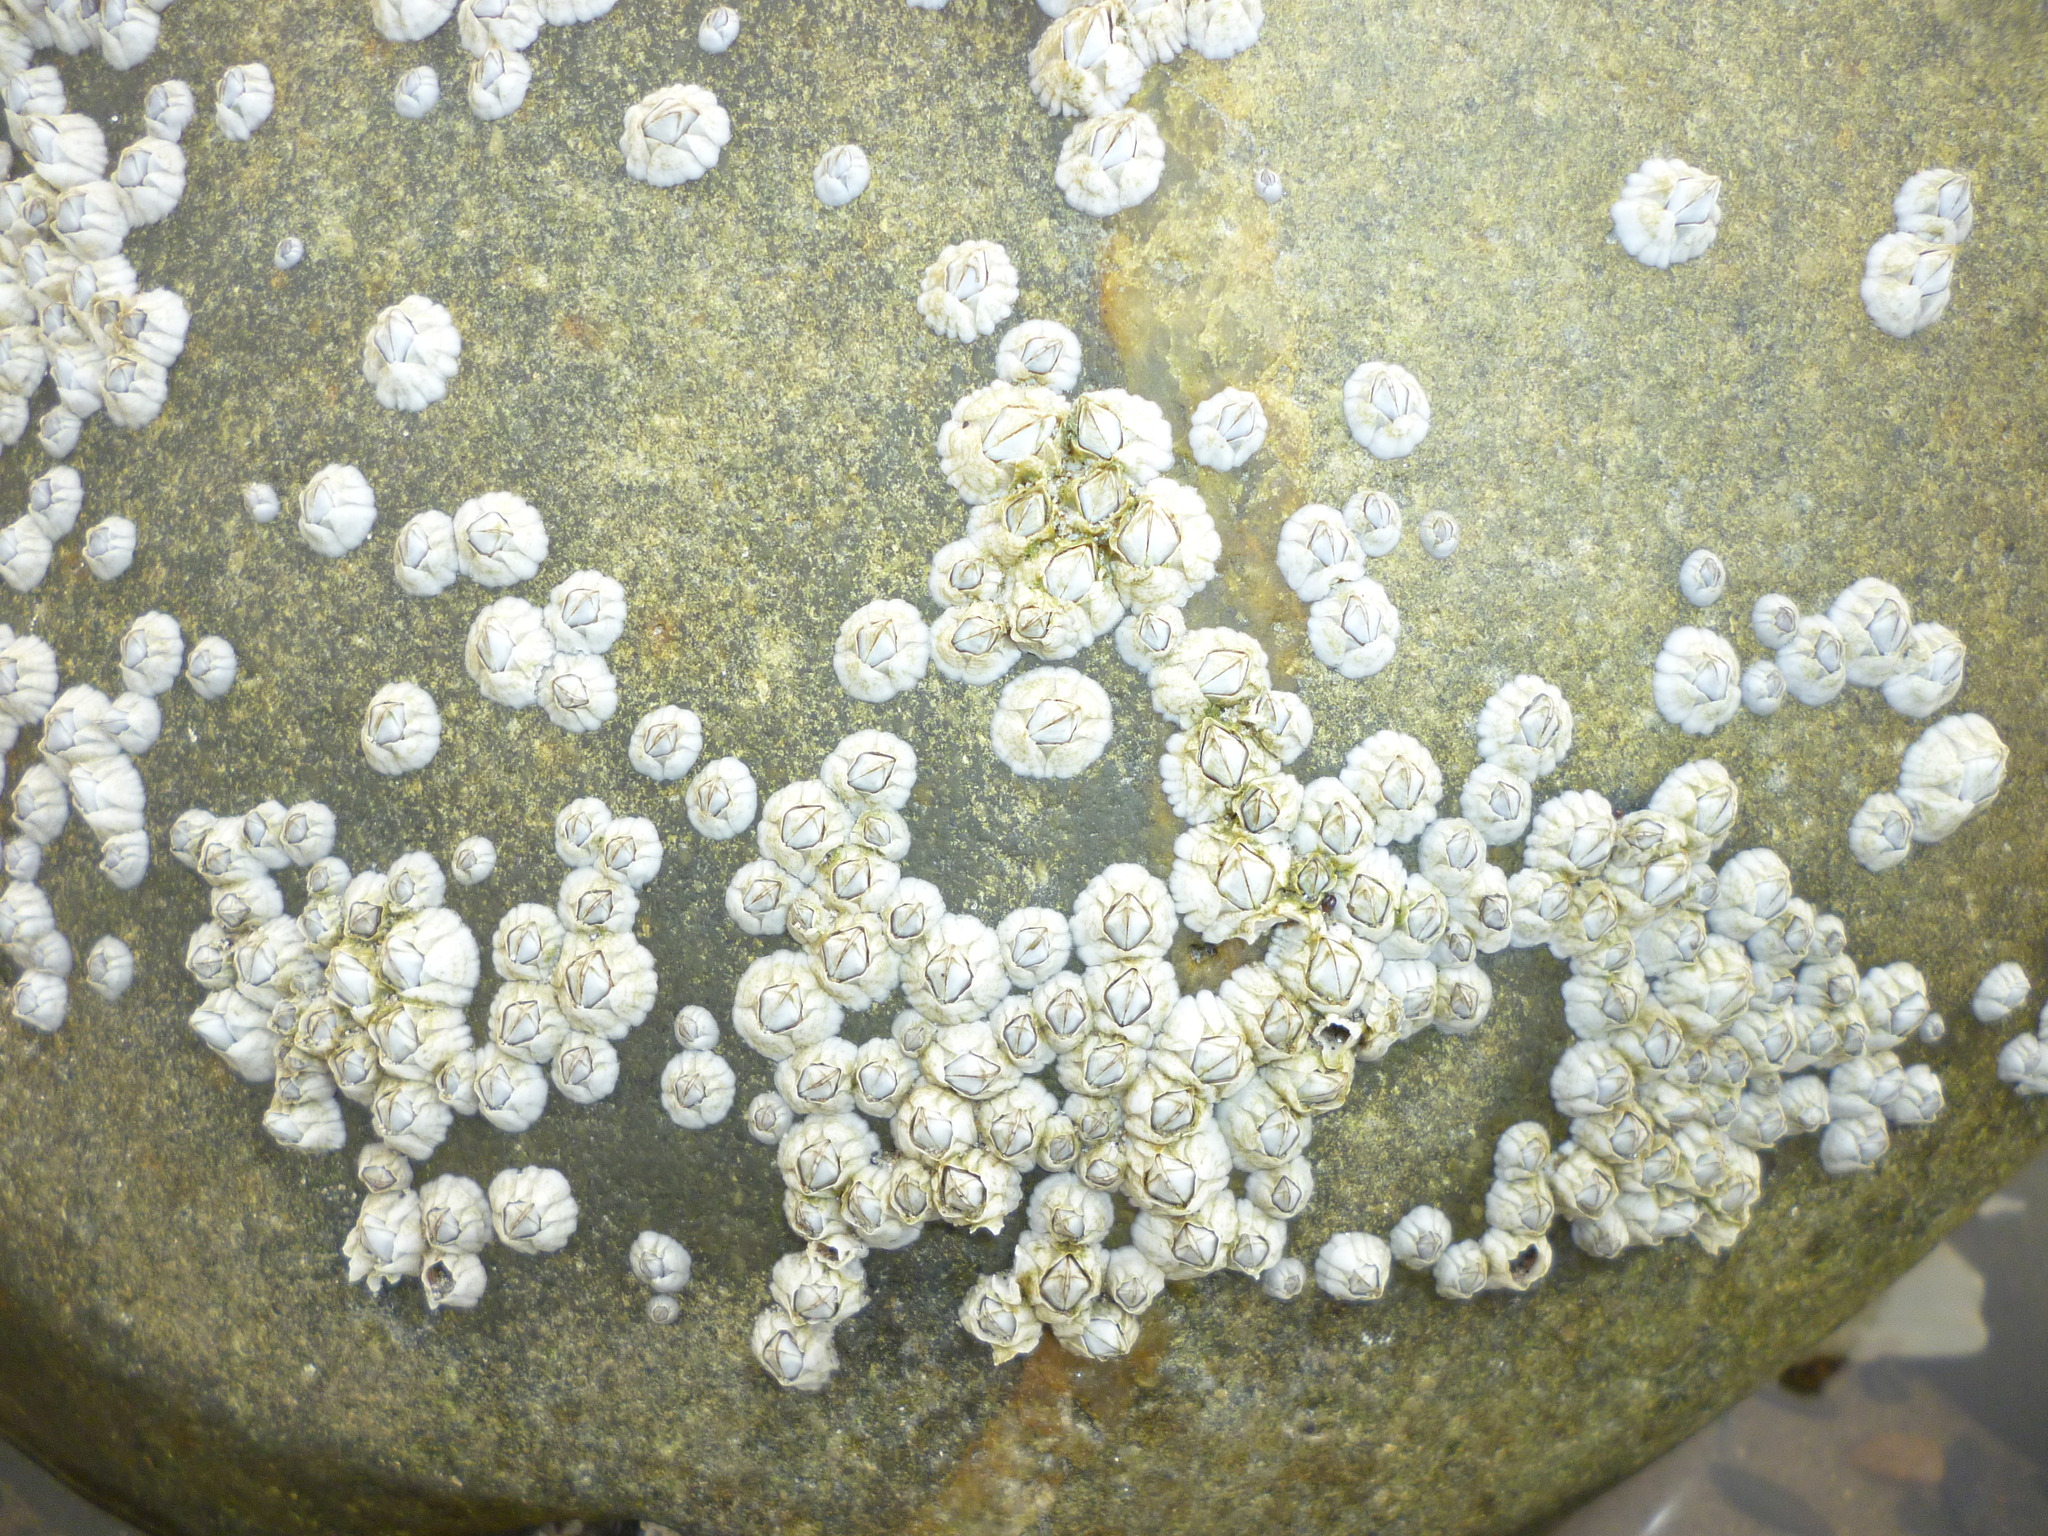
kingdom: Animalia
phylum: Arthropoda
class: Maxillopoda
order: Sessilia
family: Archaeobalanidae
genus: Semibalanus
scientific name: Semibalanus balanoides
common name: Acorn barnacle
